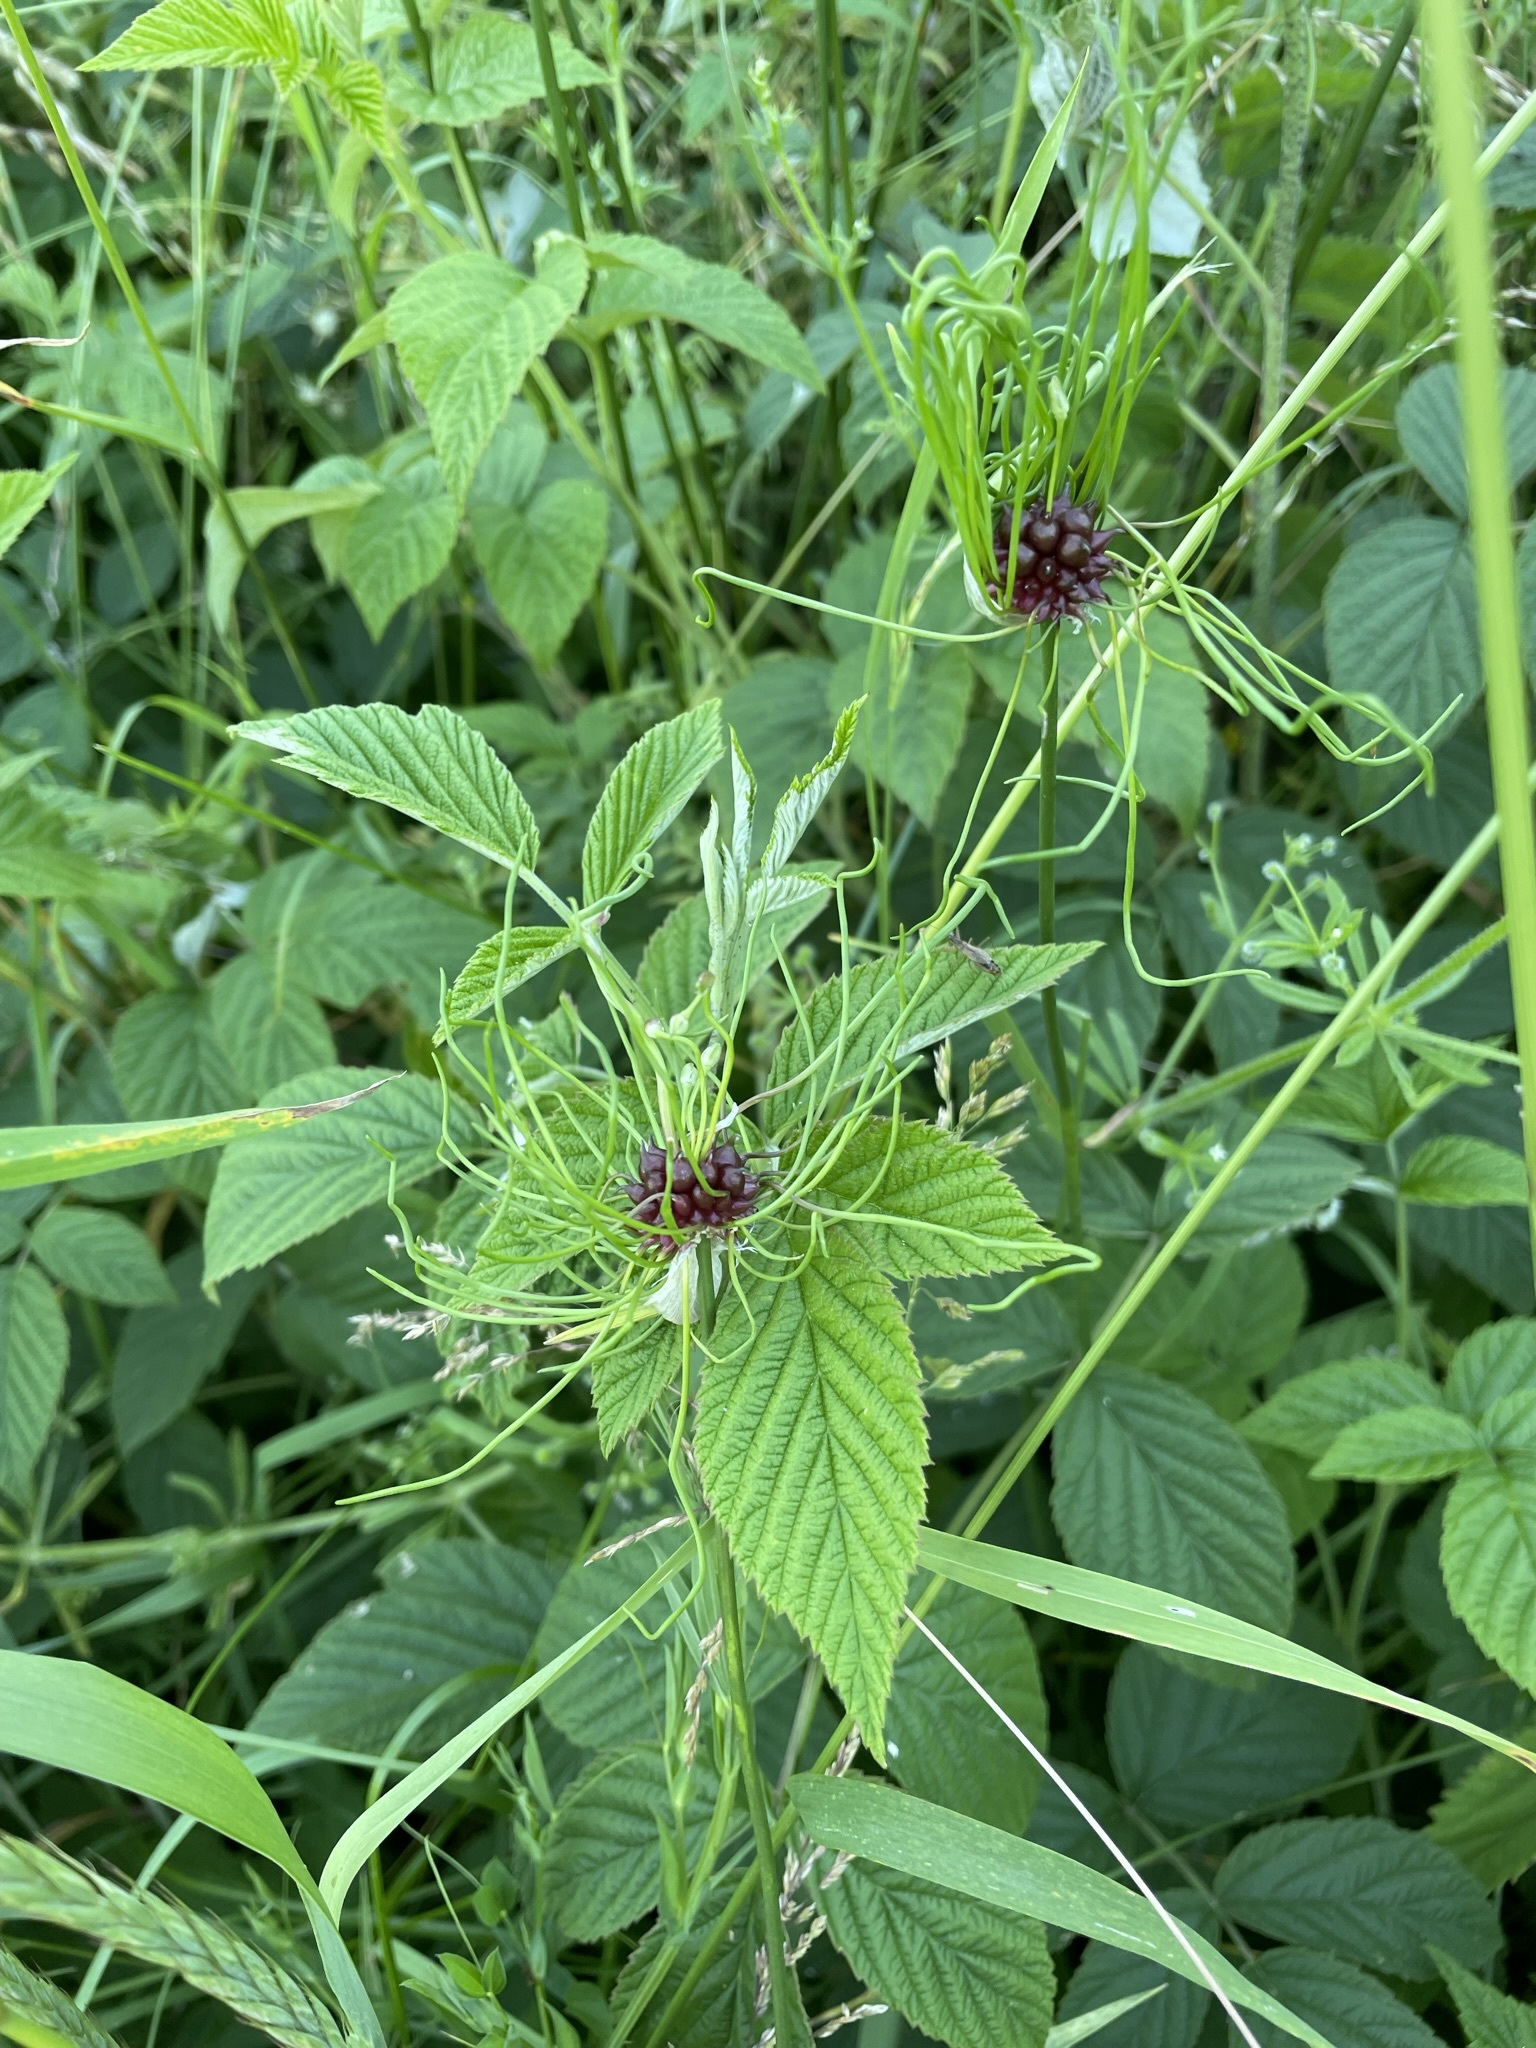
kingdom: Plantae
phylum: Tracheophyta
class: Liliopsida
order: Asparagales
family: Amaryllidaceae
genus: Allium
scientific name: Allium vineale
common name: Crow garlic
